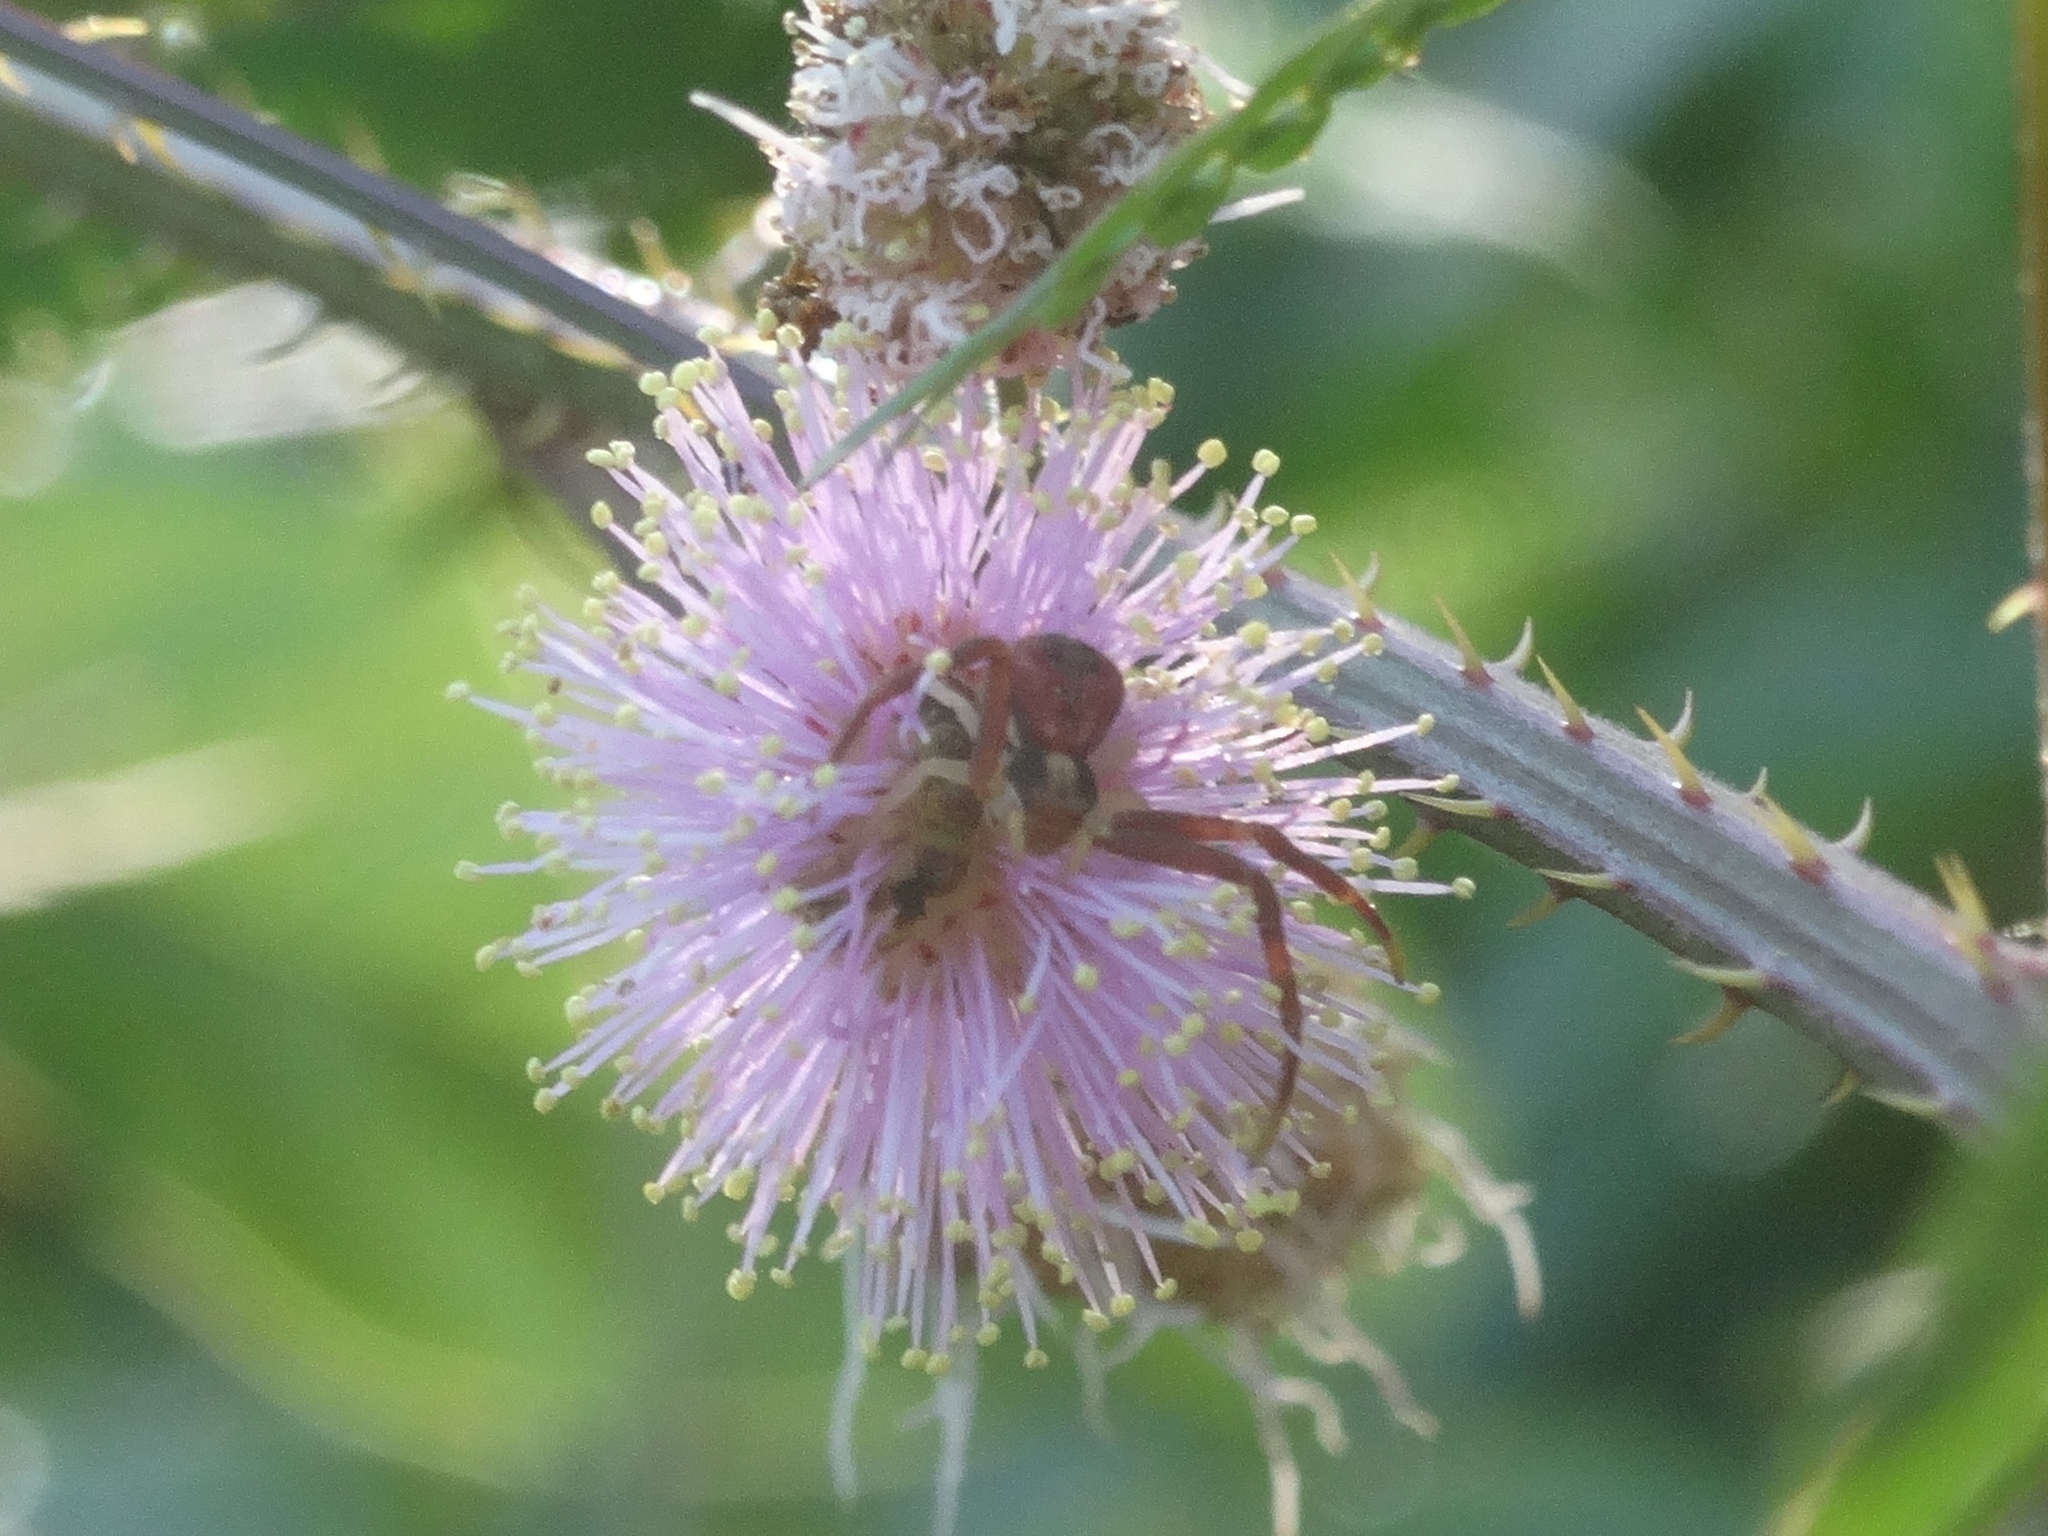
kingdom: Animalia
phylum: Arthropoda
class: Arachnida
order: Araneae
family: Thomisidae
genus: Mecaphesa
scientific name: Mecaphesa dubia
